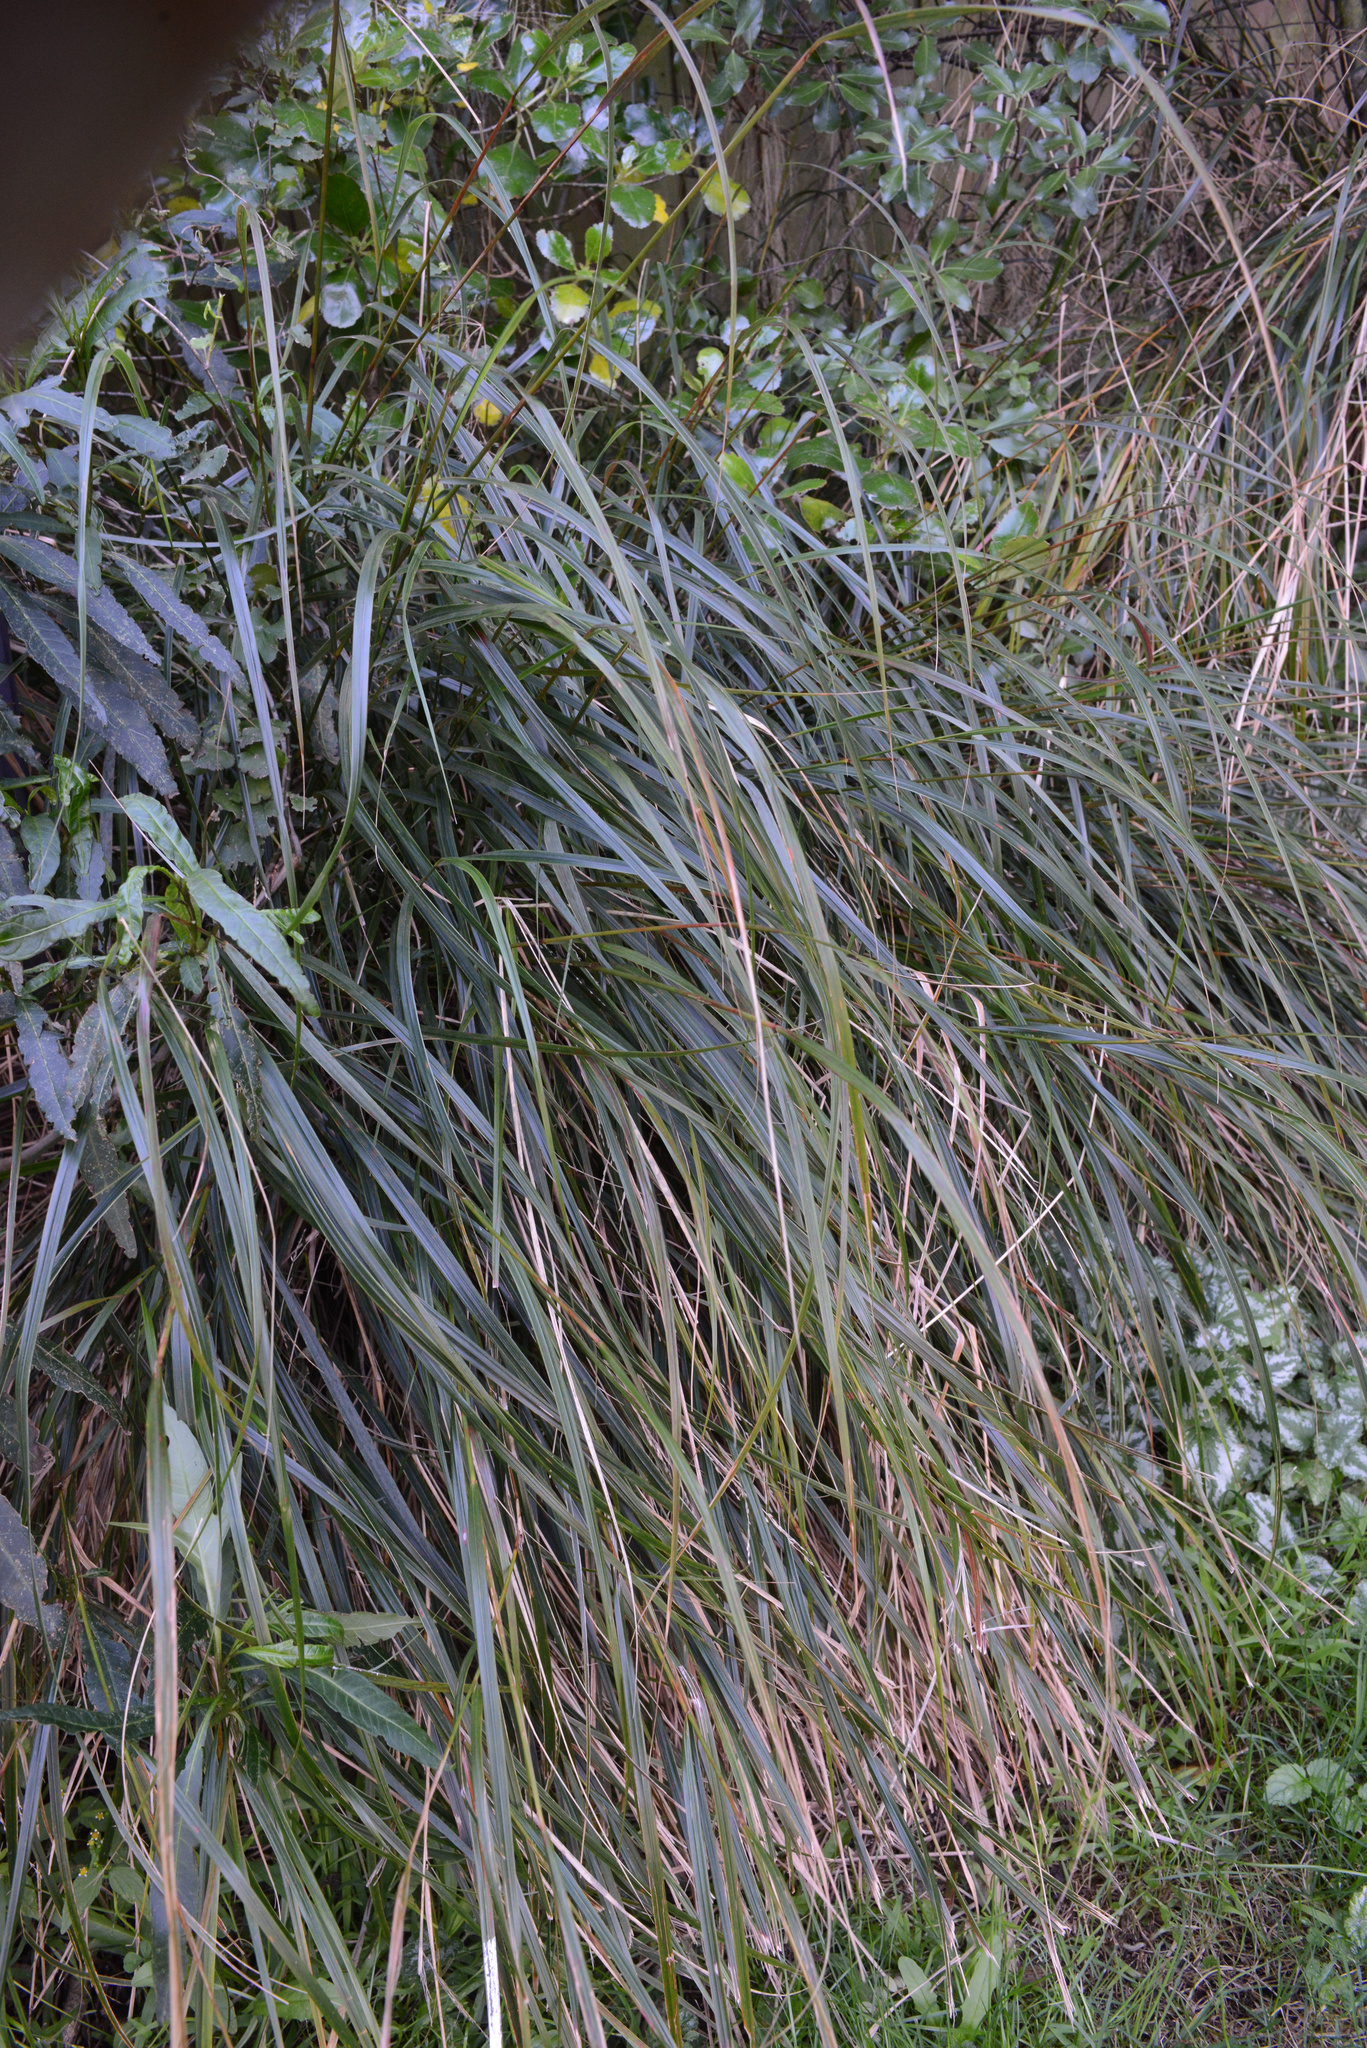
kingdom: Plantae
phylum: Tracheophyta
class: Liliopsida
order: Poales
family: Poaceae
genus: Anemanthele
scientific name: Anemanthele lessoniana
